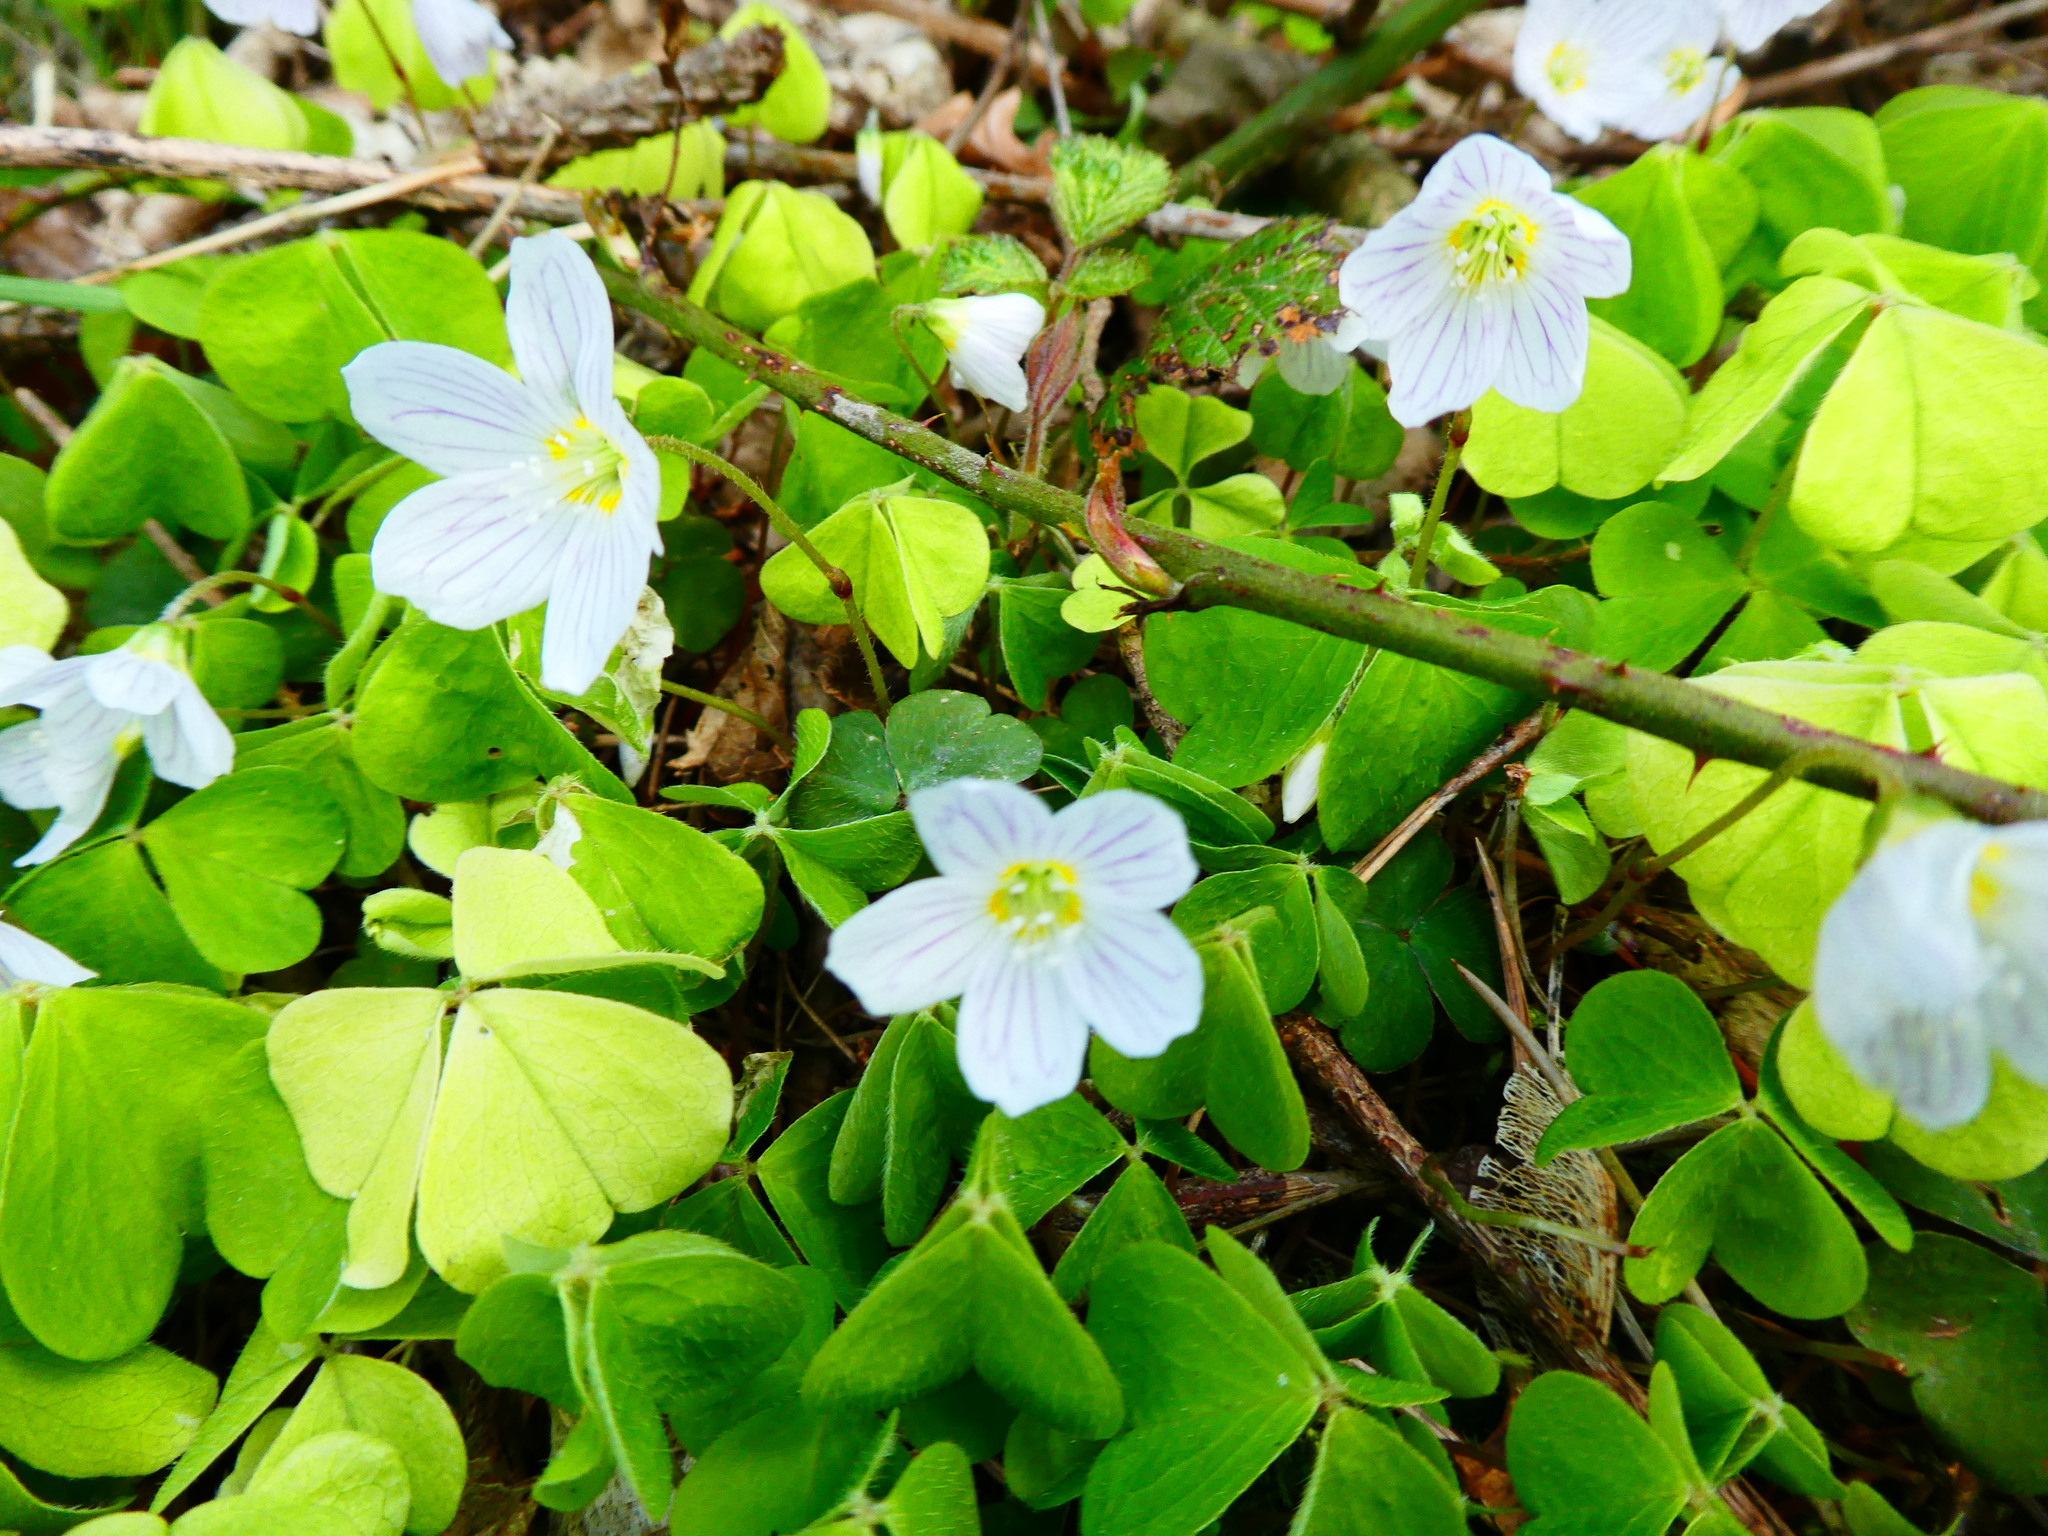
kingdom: Plantae
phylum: Tracheophyta
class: Magnoliopsida
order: Oxalidales
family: Oxalidaceae
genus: Oxalis
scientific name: Oxalis acetosella
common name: Wood-sorrel
